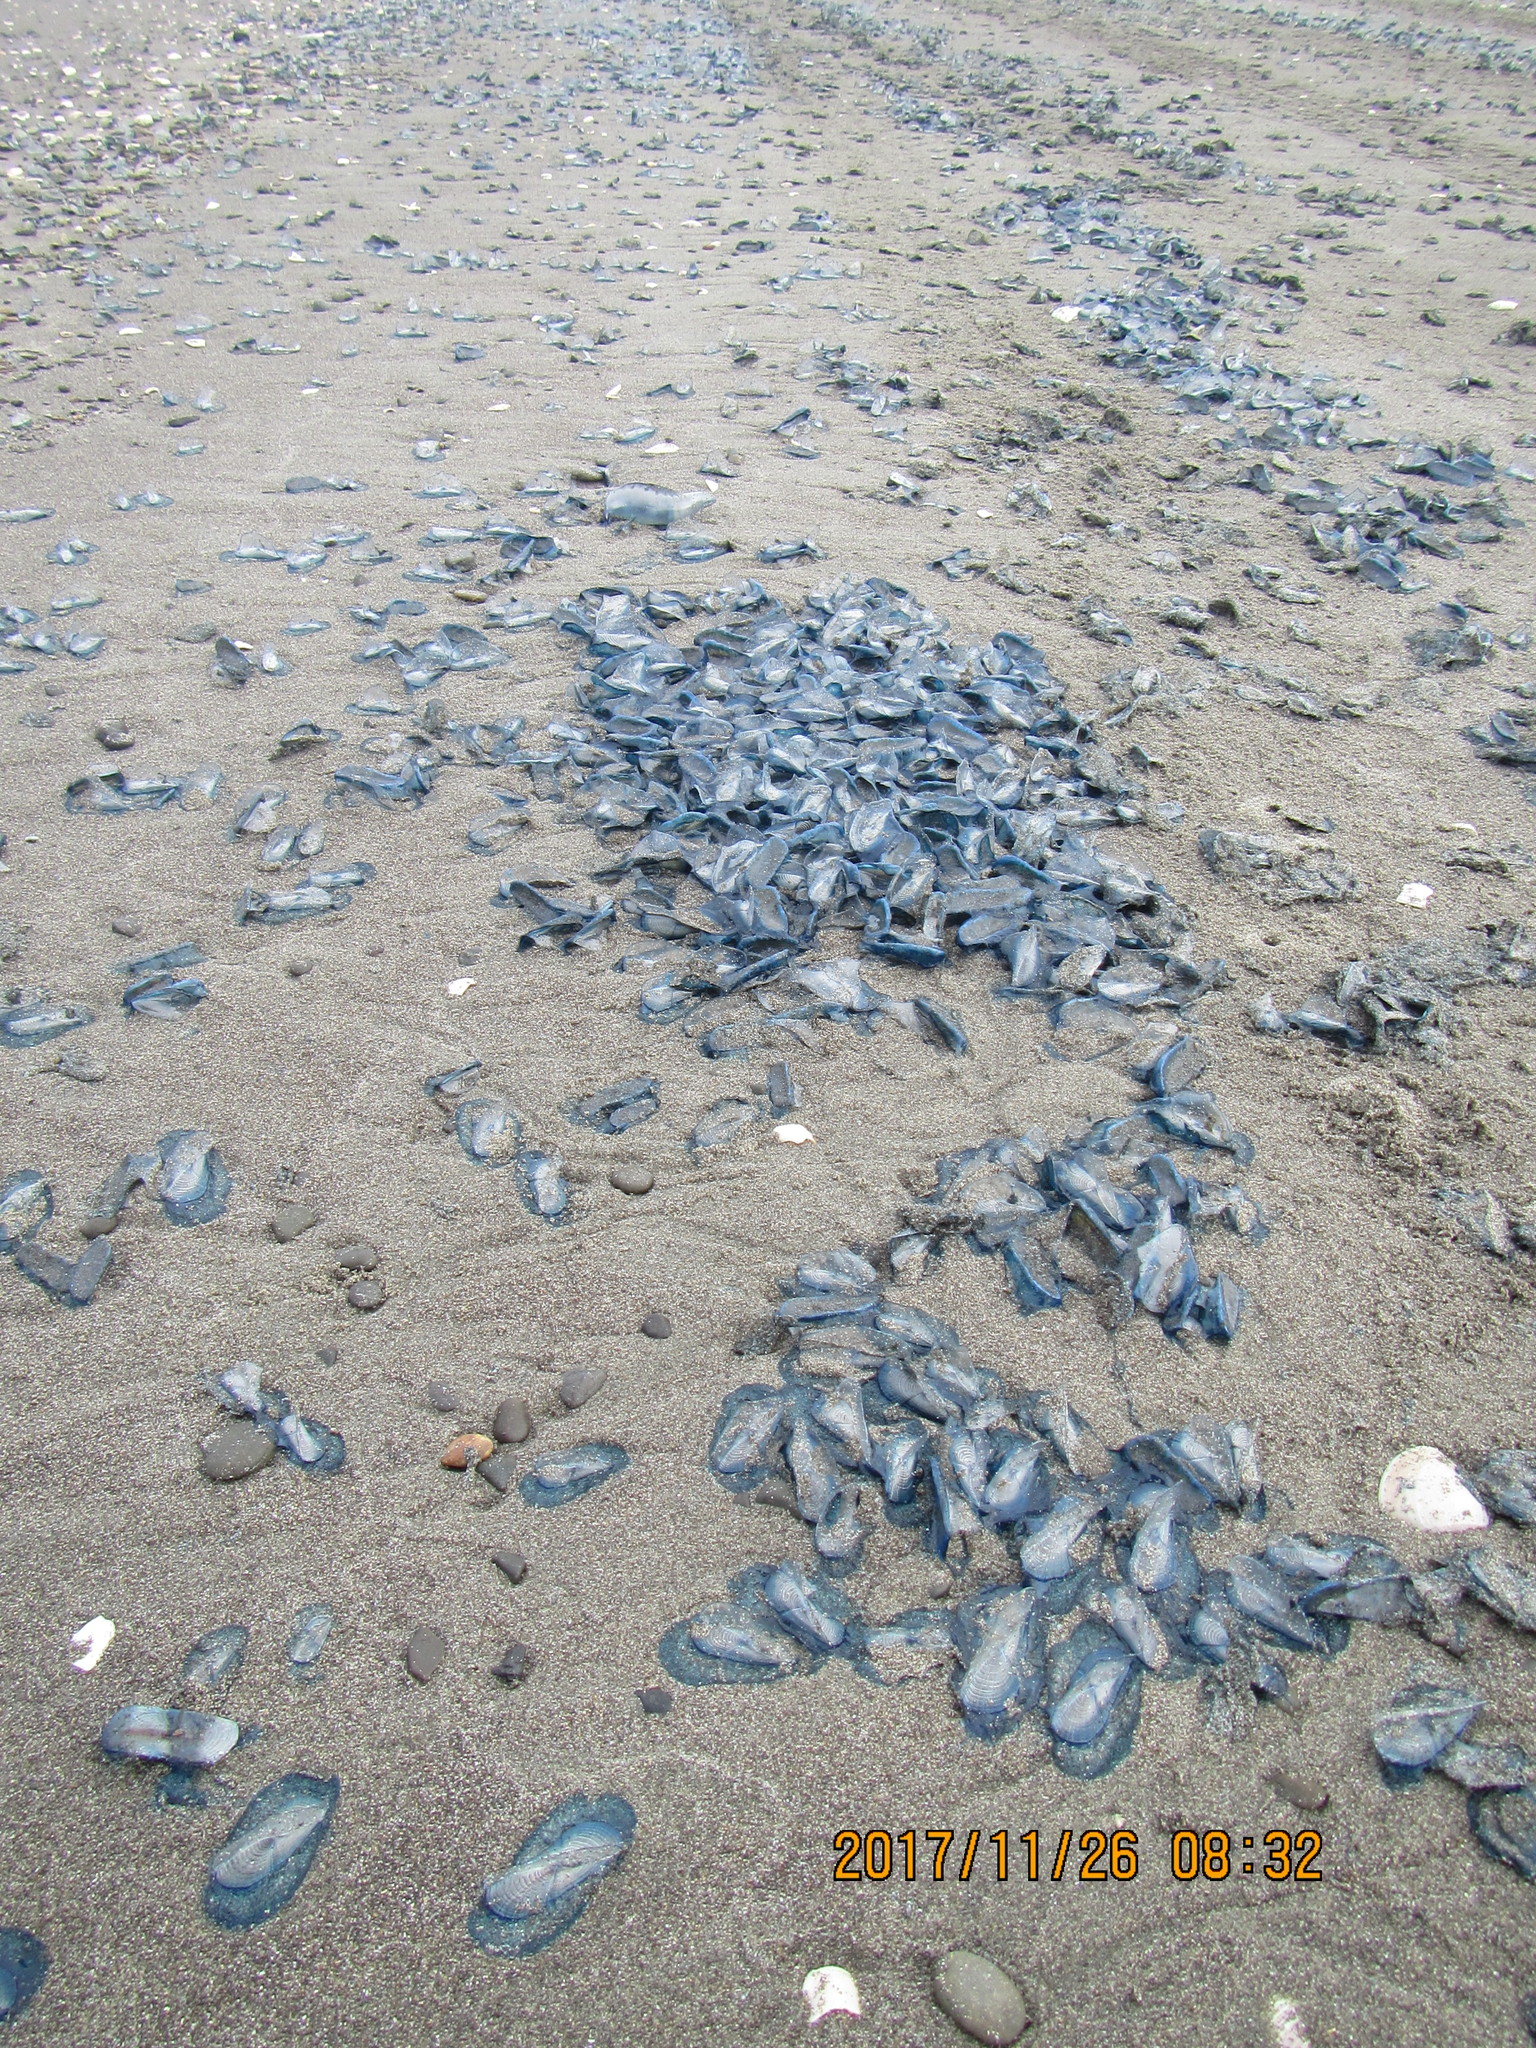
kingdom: Animalia
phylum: Cnidaria
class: Hydrozoa
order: Anthoathecata
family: Porpitidae
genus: Velella
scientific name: Velella velella
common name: By-the-wind-sailor
